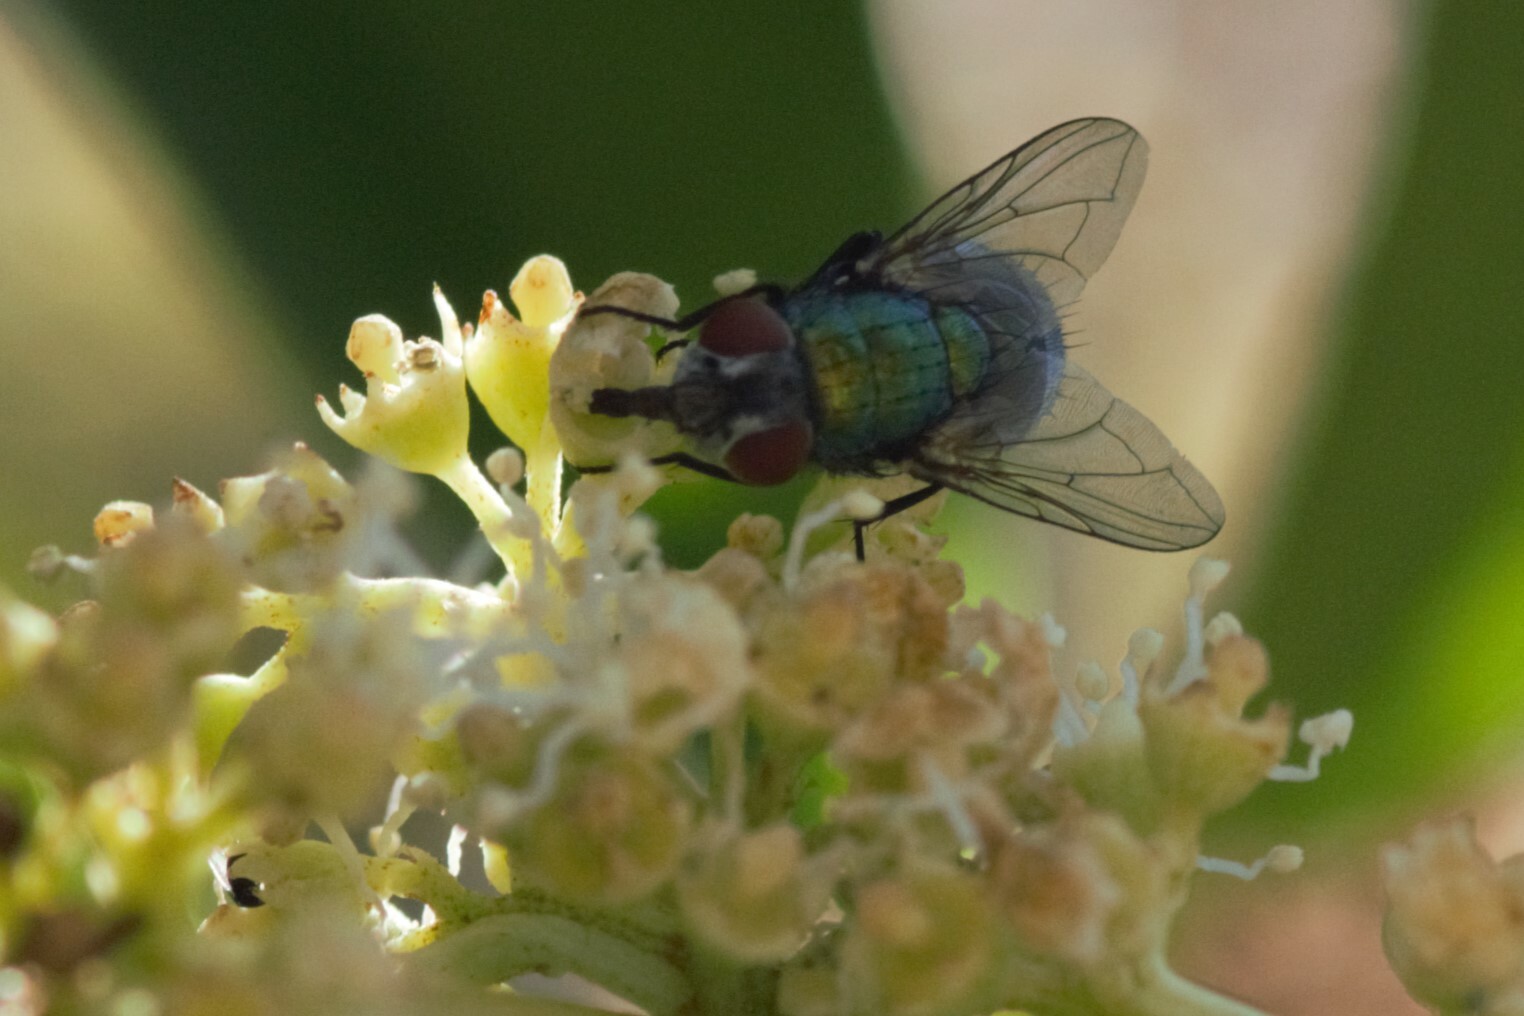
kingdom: Animalia
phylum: Arthropoda
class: Insecta
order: Diptera
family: Calliphoridae
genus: Lucilia
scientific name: Lucilia
